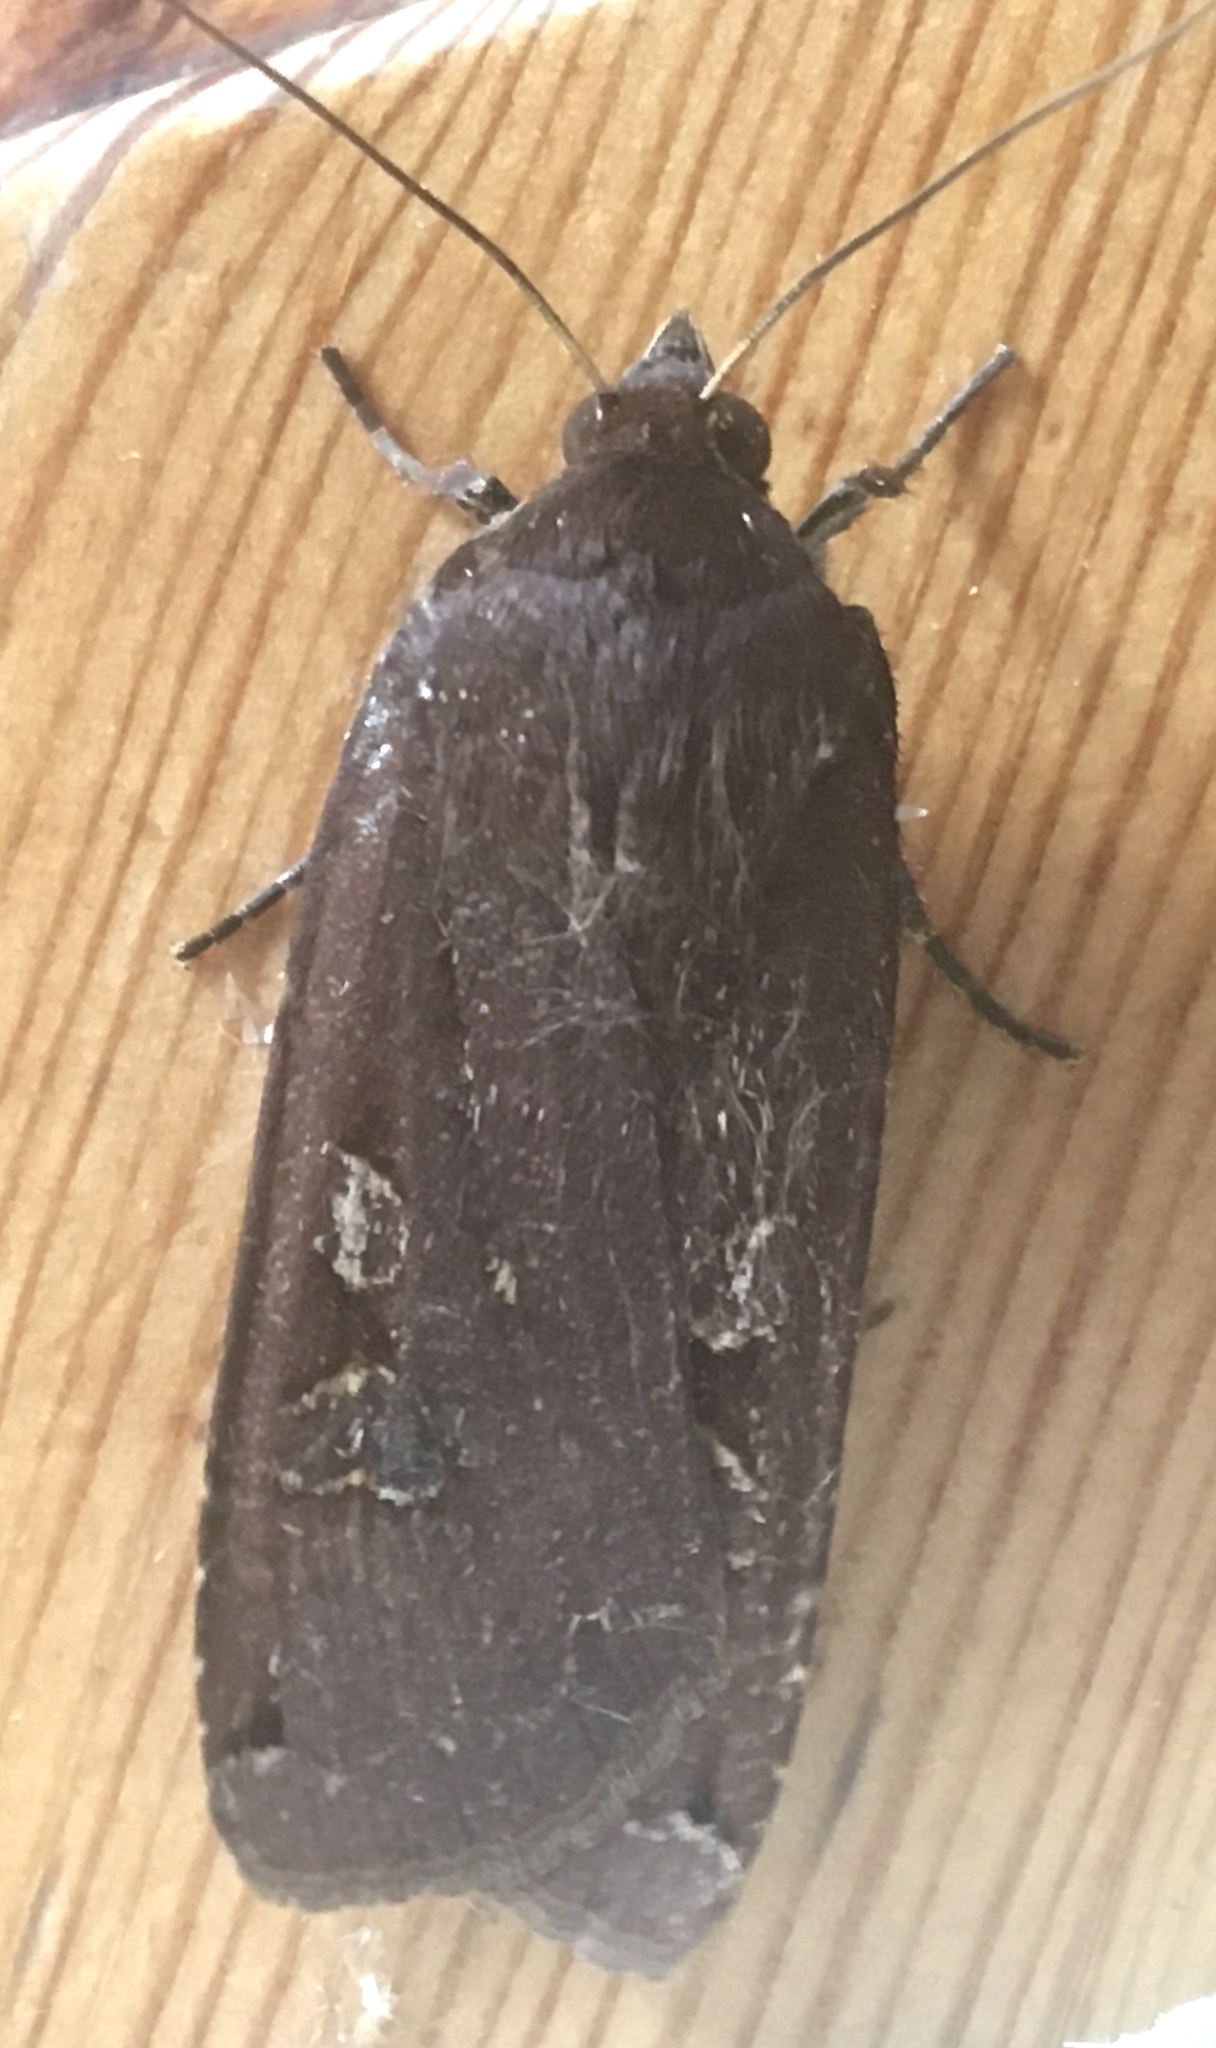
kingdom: Animalia
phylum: Arthropoda
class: Insecta
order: Lepidoptera
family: Noctuidae
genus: Noctua
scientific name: Noctua pronuba
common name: Large yellow underwing
